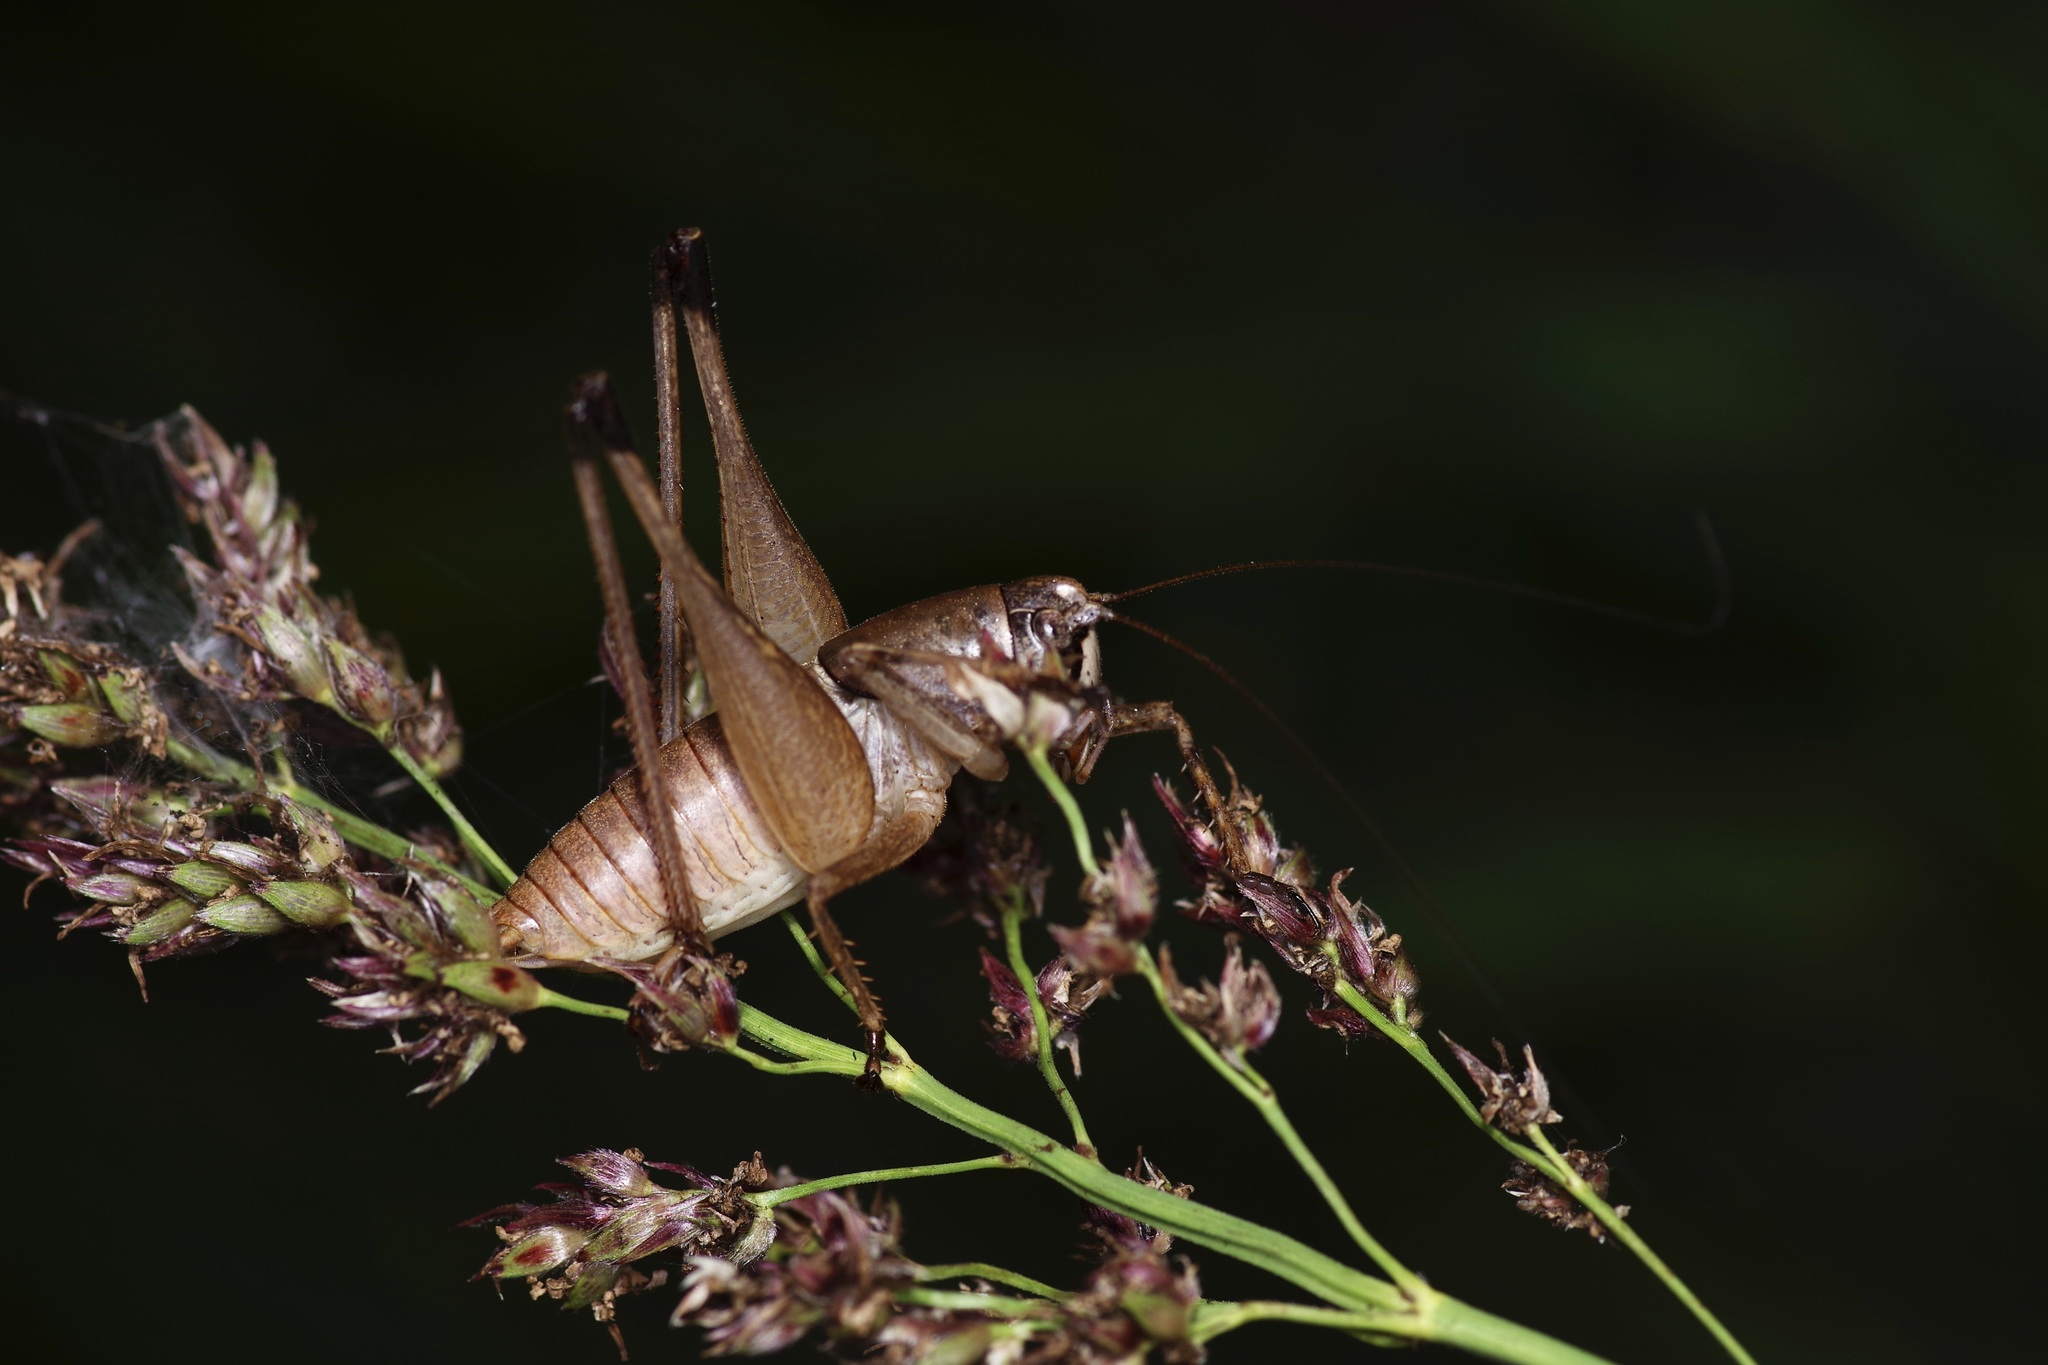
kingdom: Animalia
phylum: Arthropoda
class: Insecta
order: Orthoptera
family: Tettigoniidae
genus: Pediodectes
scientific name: Pediodectes bruneri
